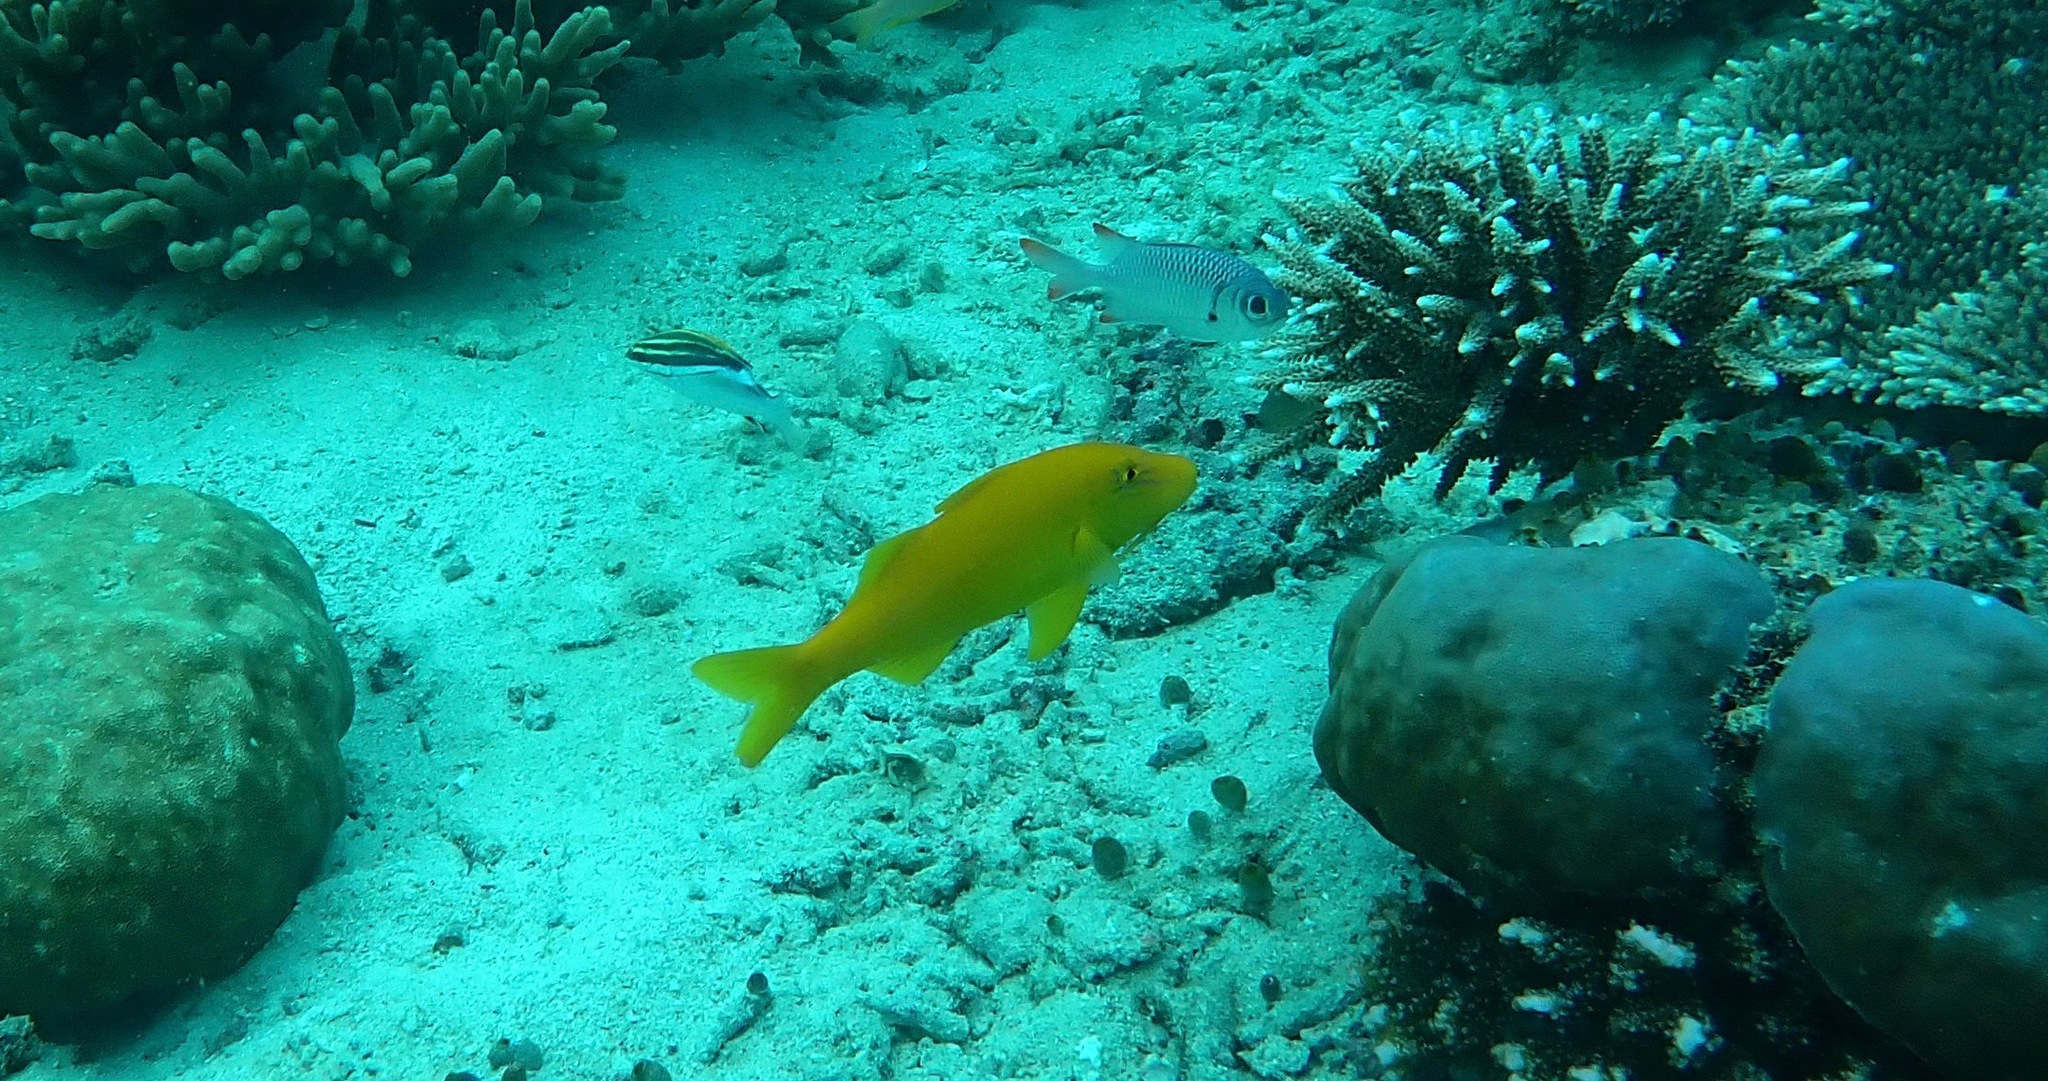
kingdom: Animalia
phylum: Chordata
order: Perciformes
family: Mullidae
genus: Parupeneus
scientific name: Parupeneus cyclostomus
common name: Goldsaddle goatfish
